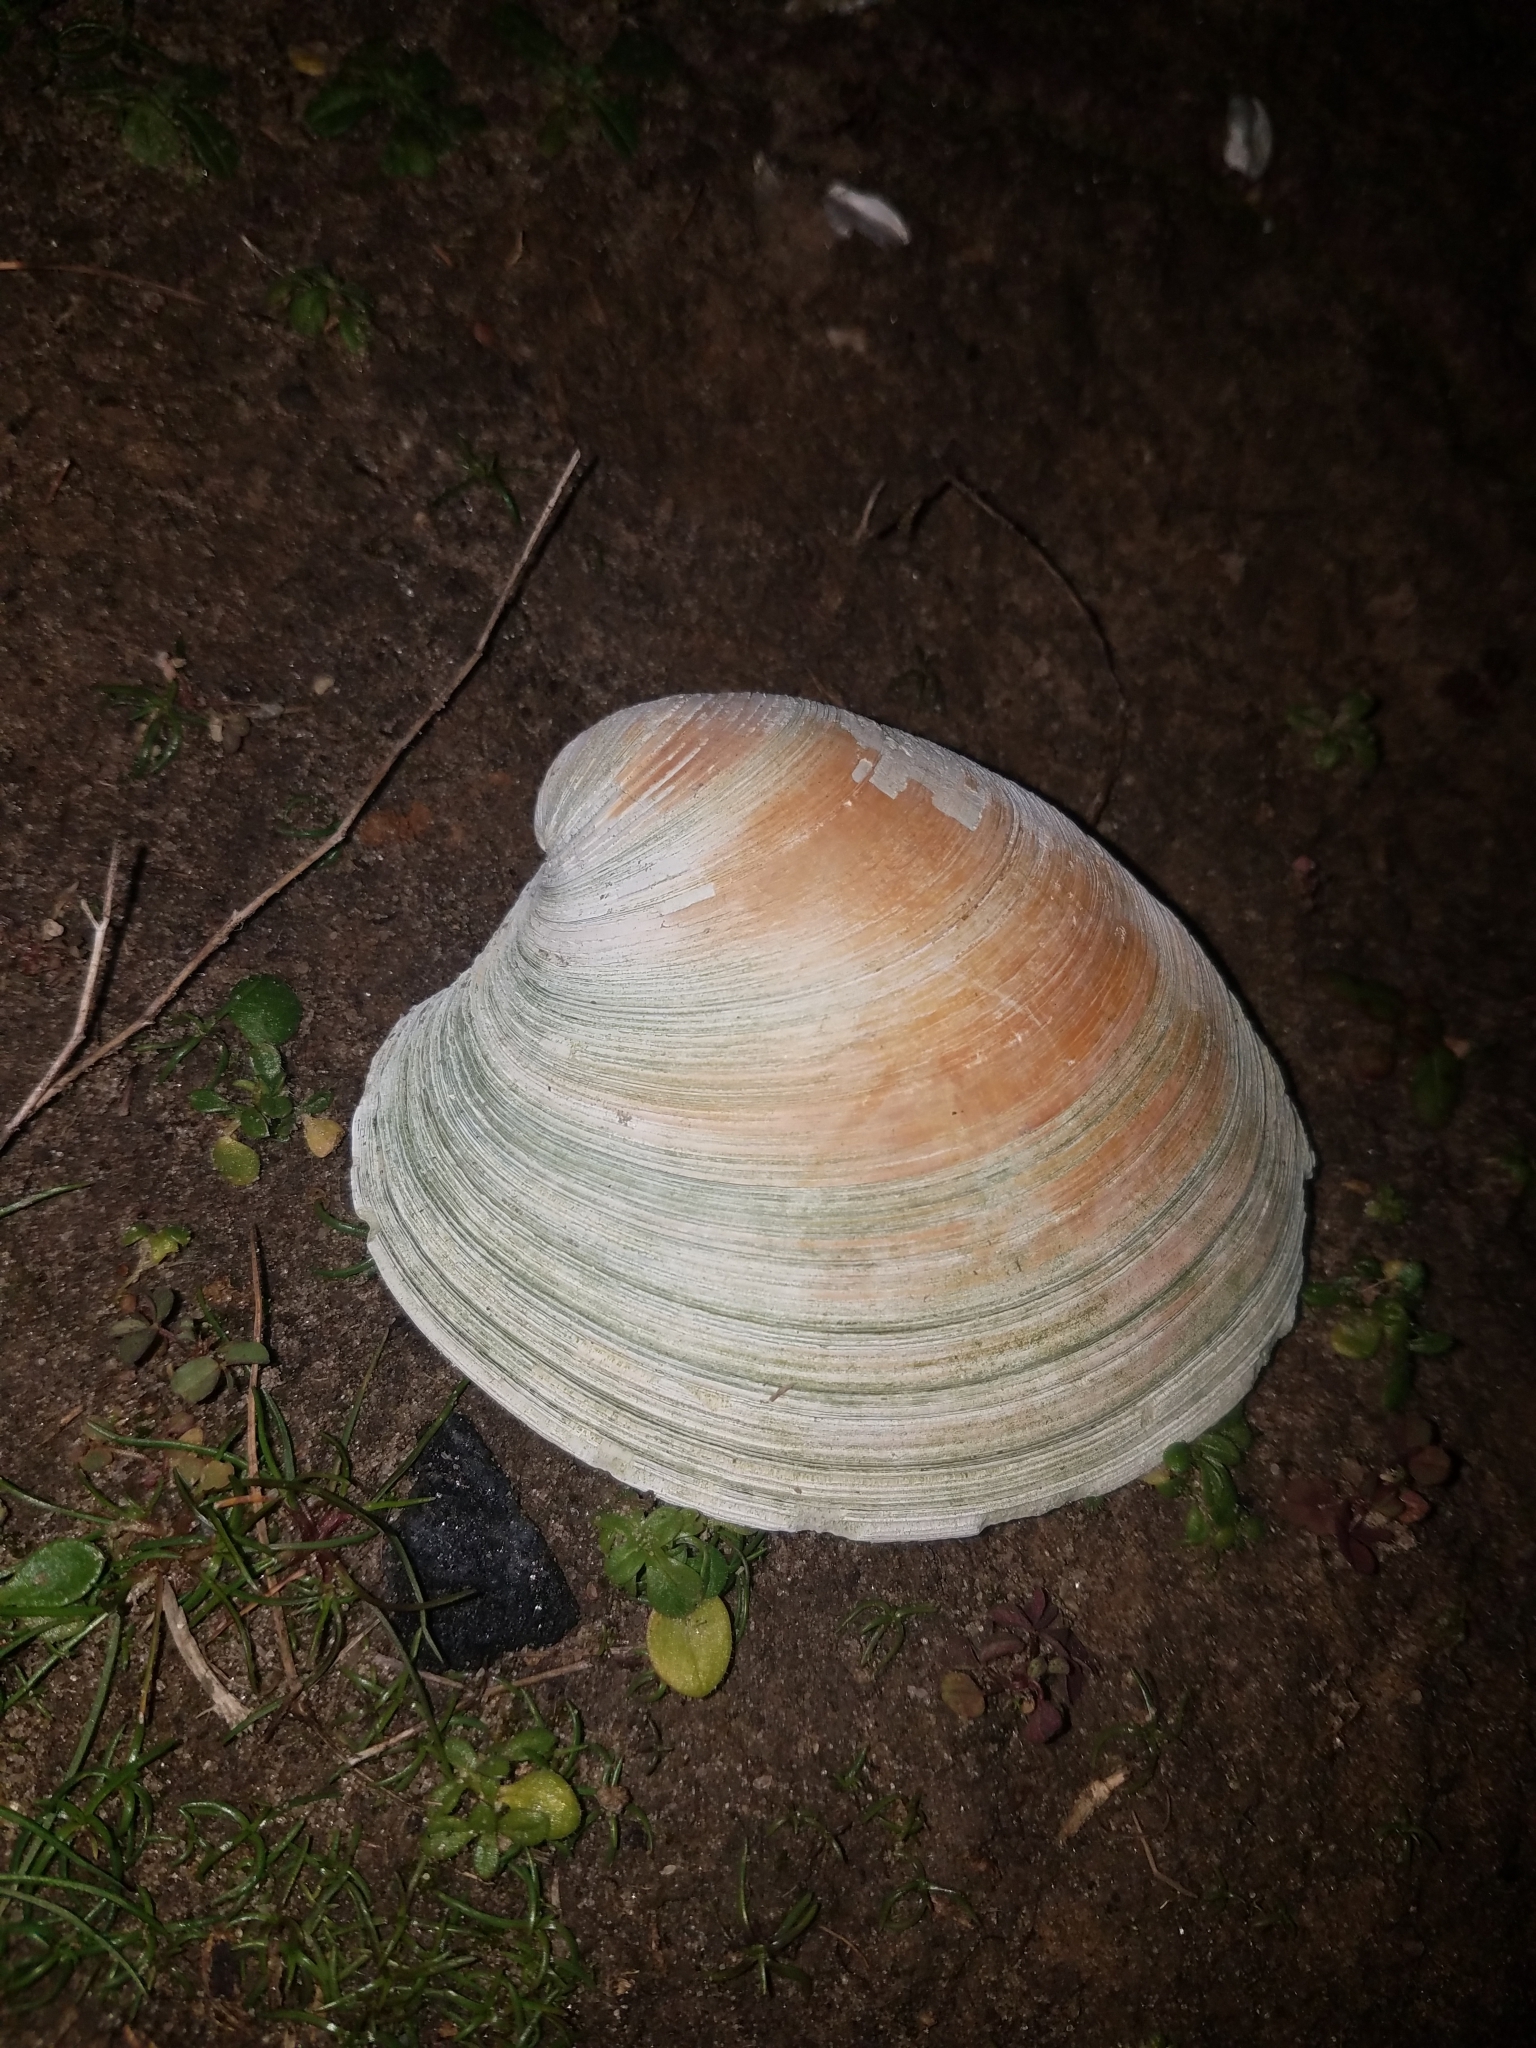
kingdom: Animalia
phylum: Mollusca
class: Bivalvia
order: Venerida
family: Veneridae
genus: Mercenaria
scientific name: Mercenaria mercenaria
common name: American hard-shelled clam
